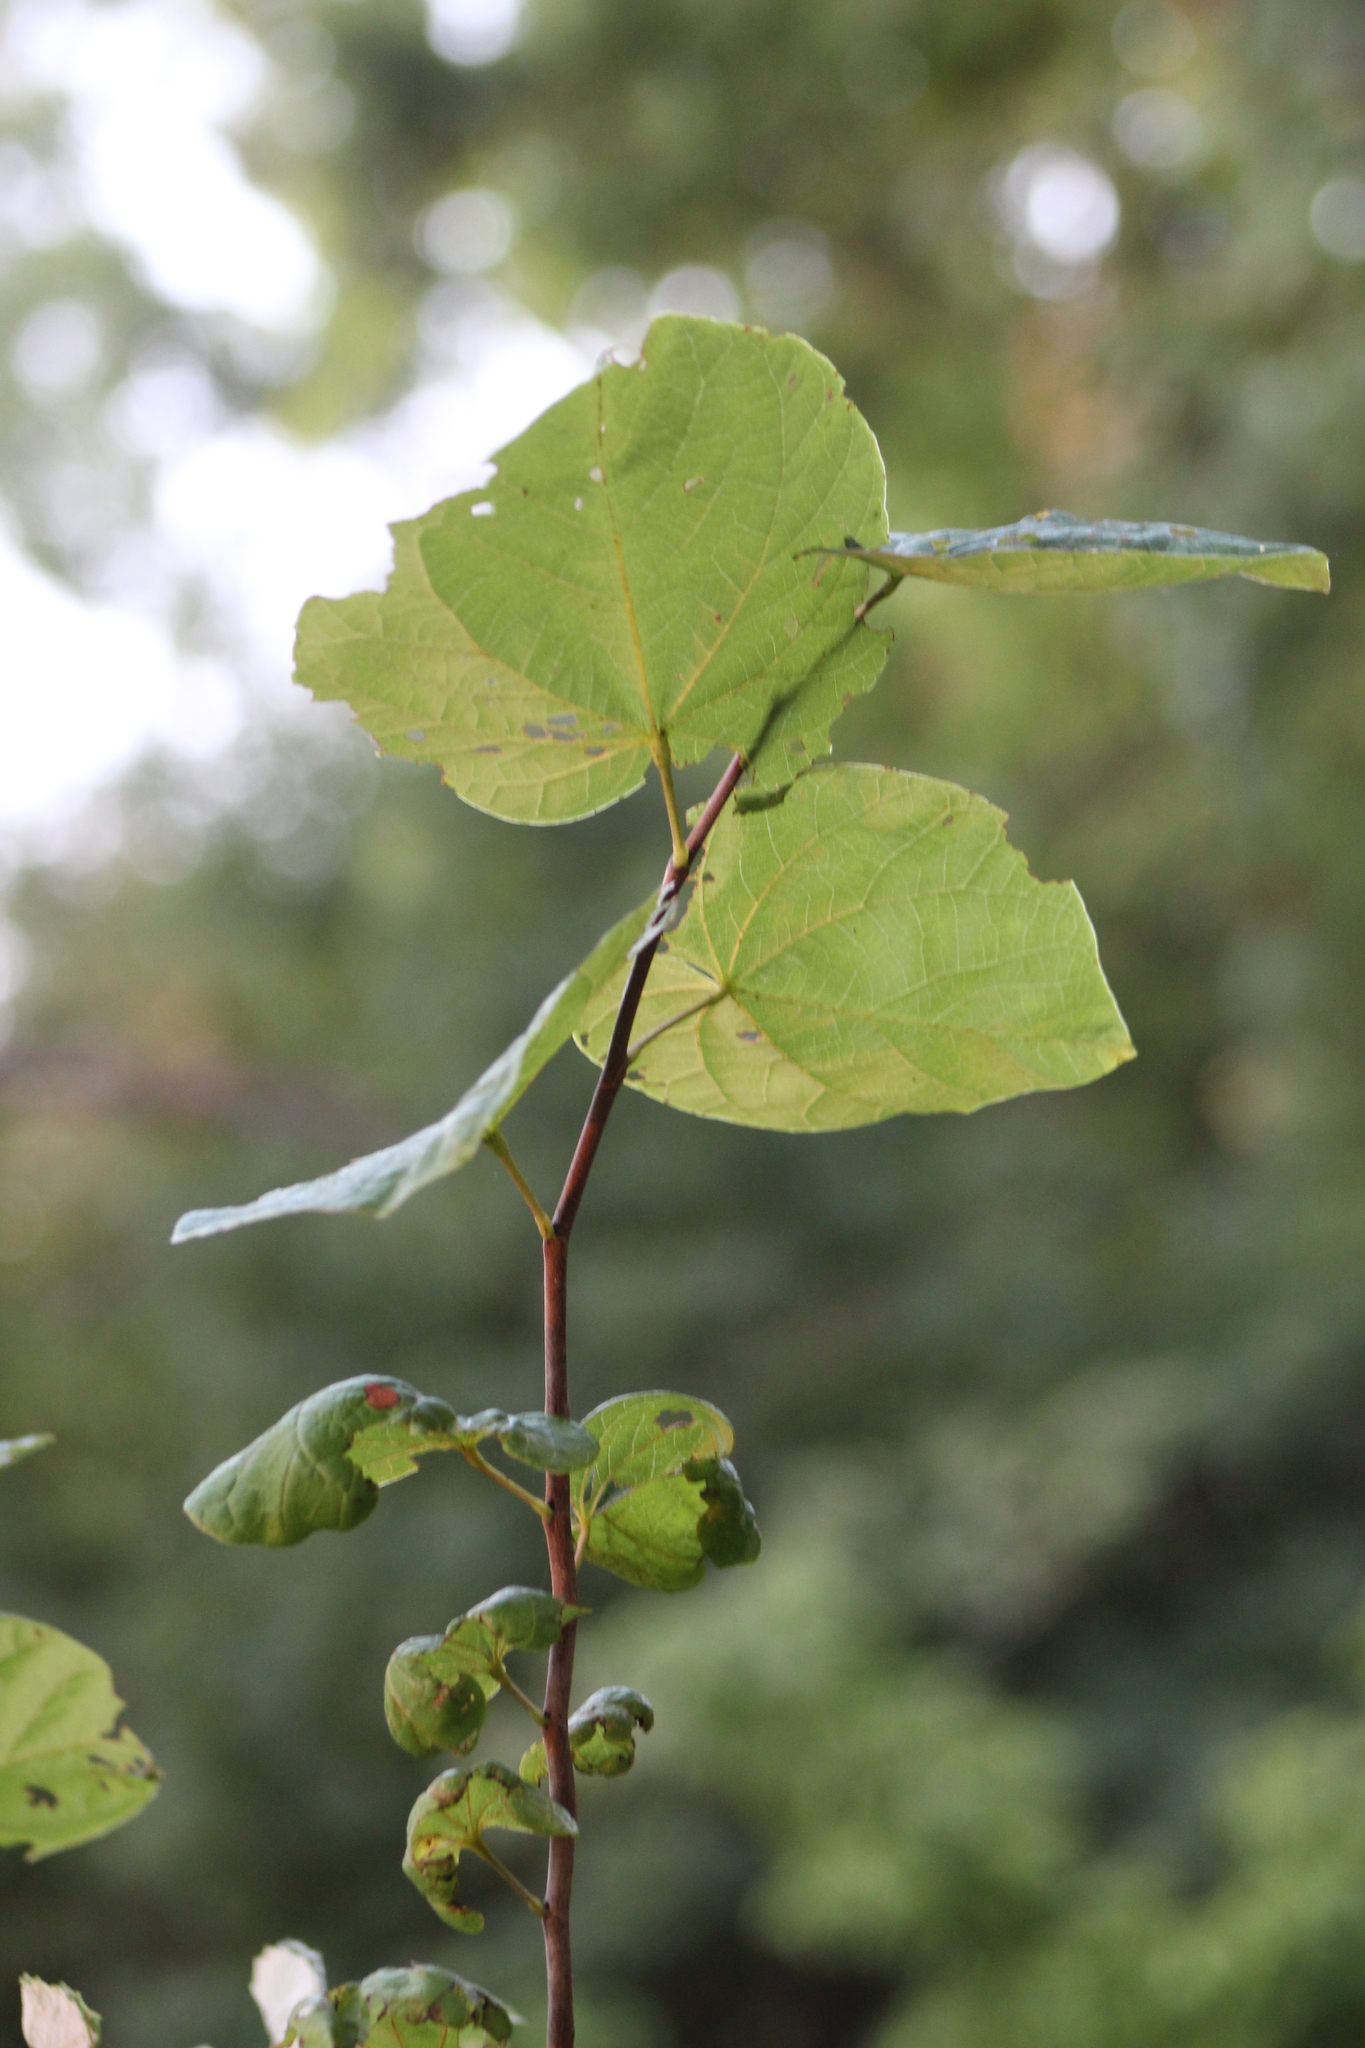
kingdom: Plantae
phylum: Tracheophyta
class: Magnoliopsida
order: Fabales
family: Fabaceae
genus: Cercis
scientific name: Cercis canadensis
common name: Eastern redbud
